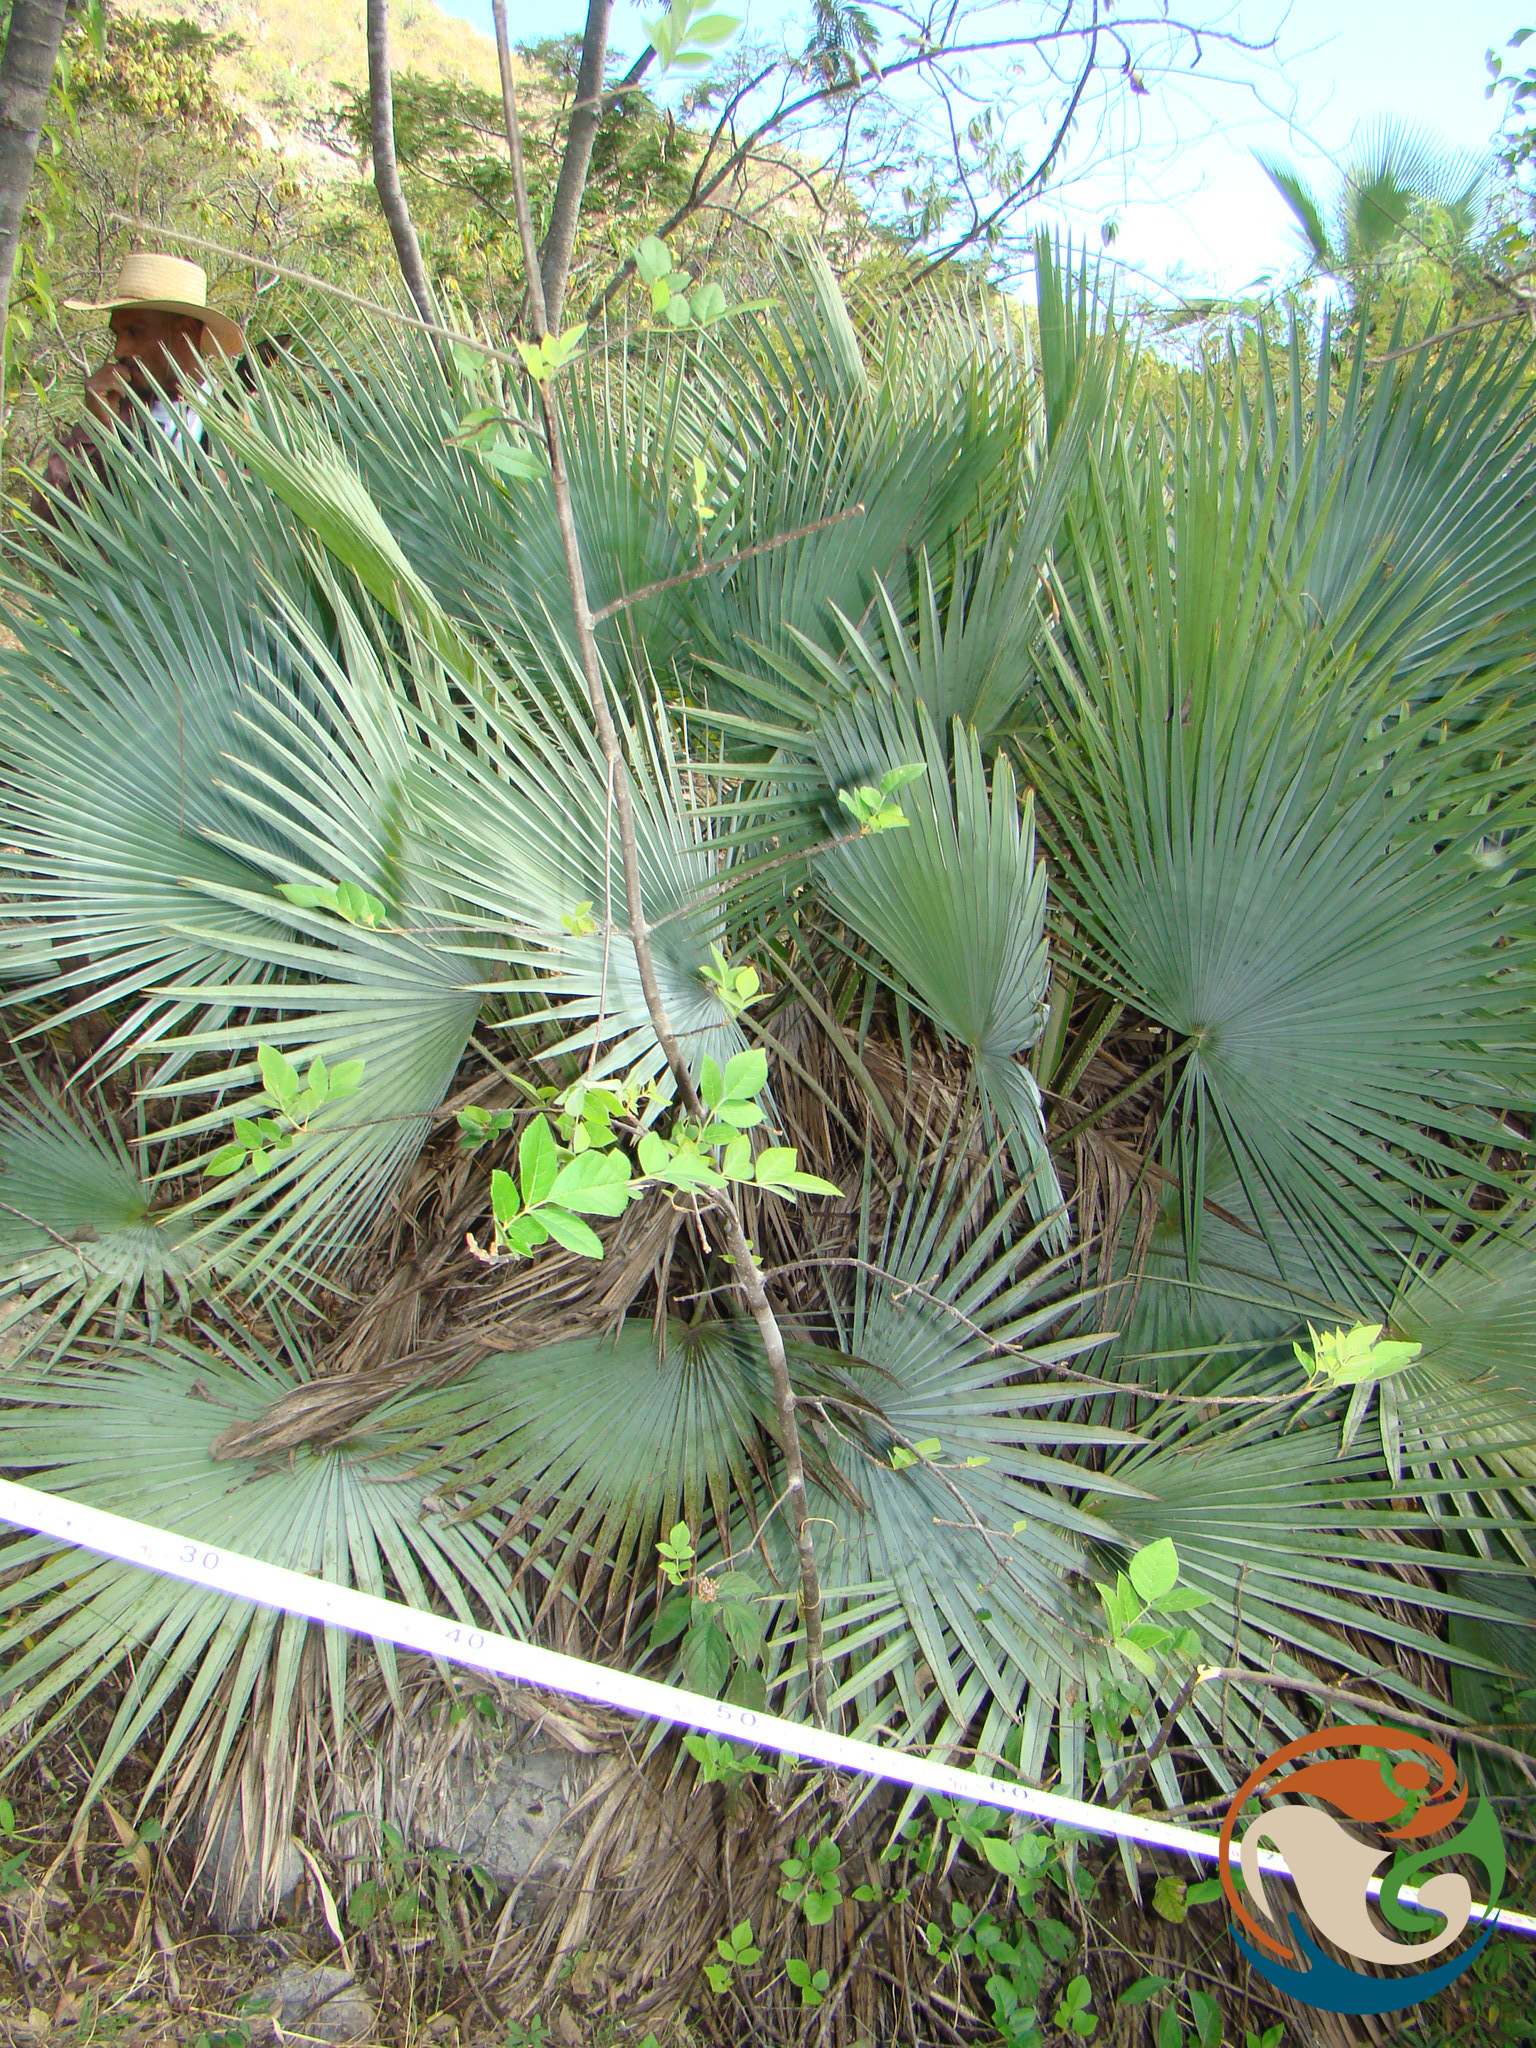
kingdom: Plantae
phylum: Tracheophyta
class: Liliopsida
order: Arecales
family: Arecaceae
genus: Brahea
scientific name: Brahea dulcis
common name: Apak palm
